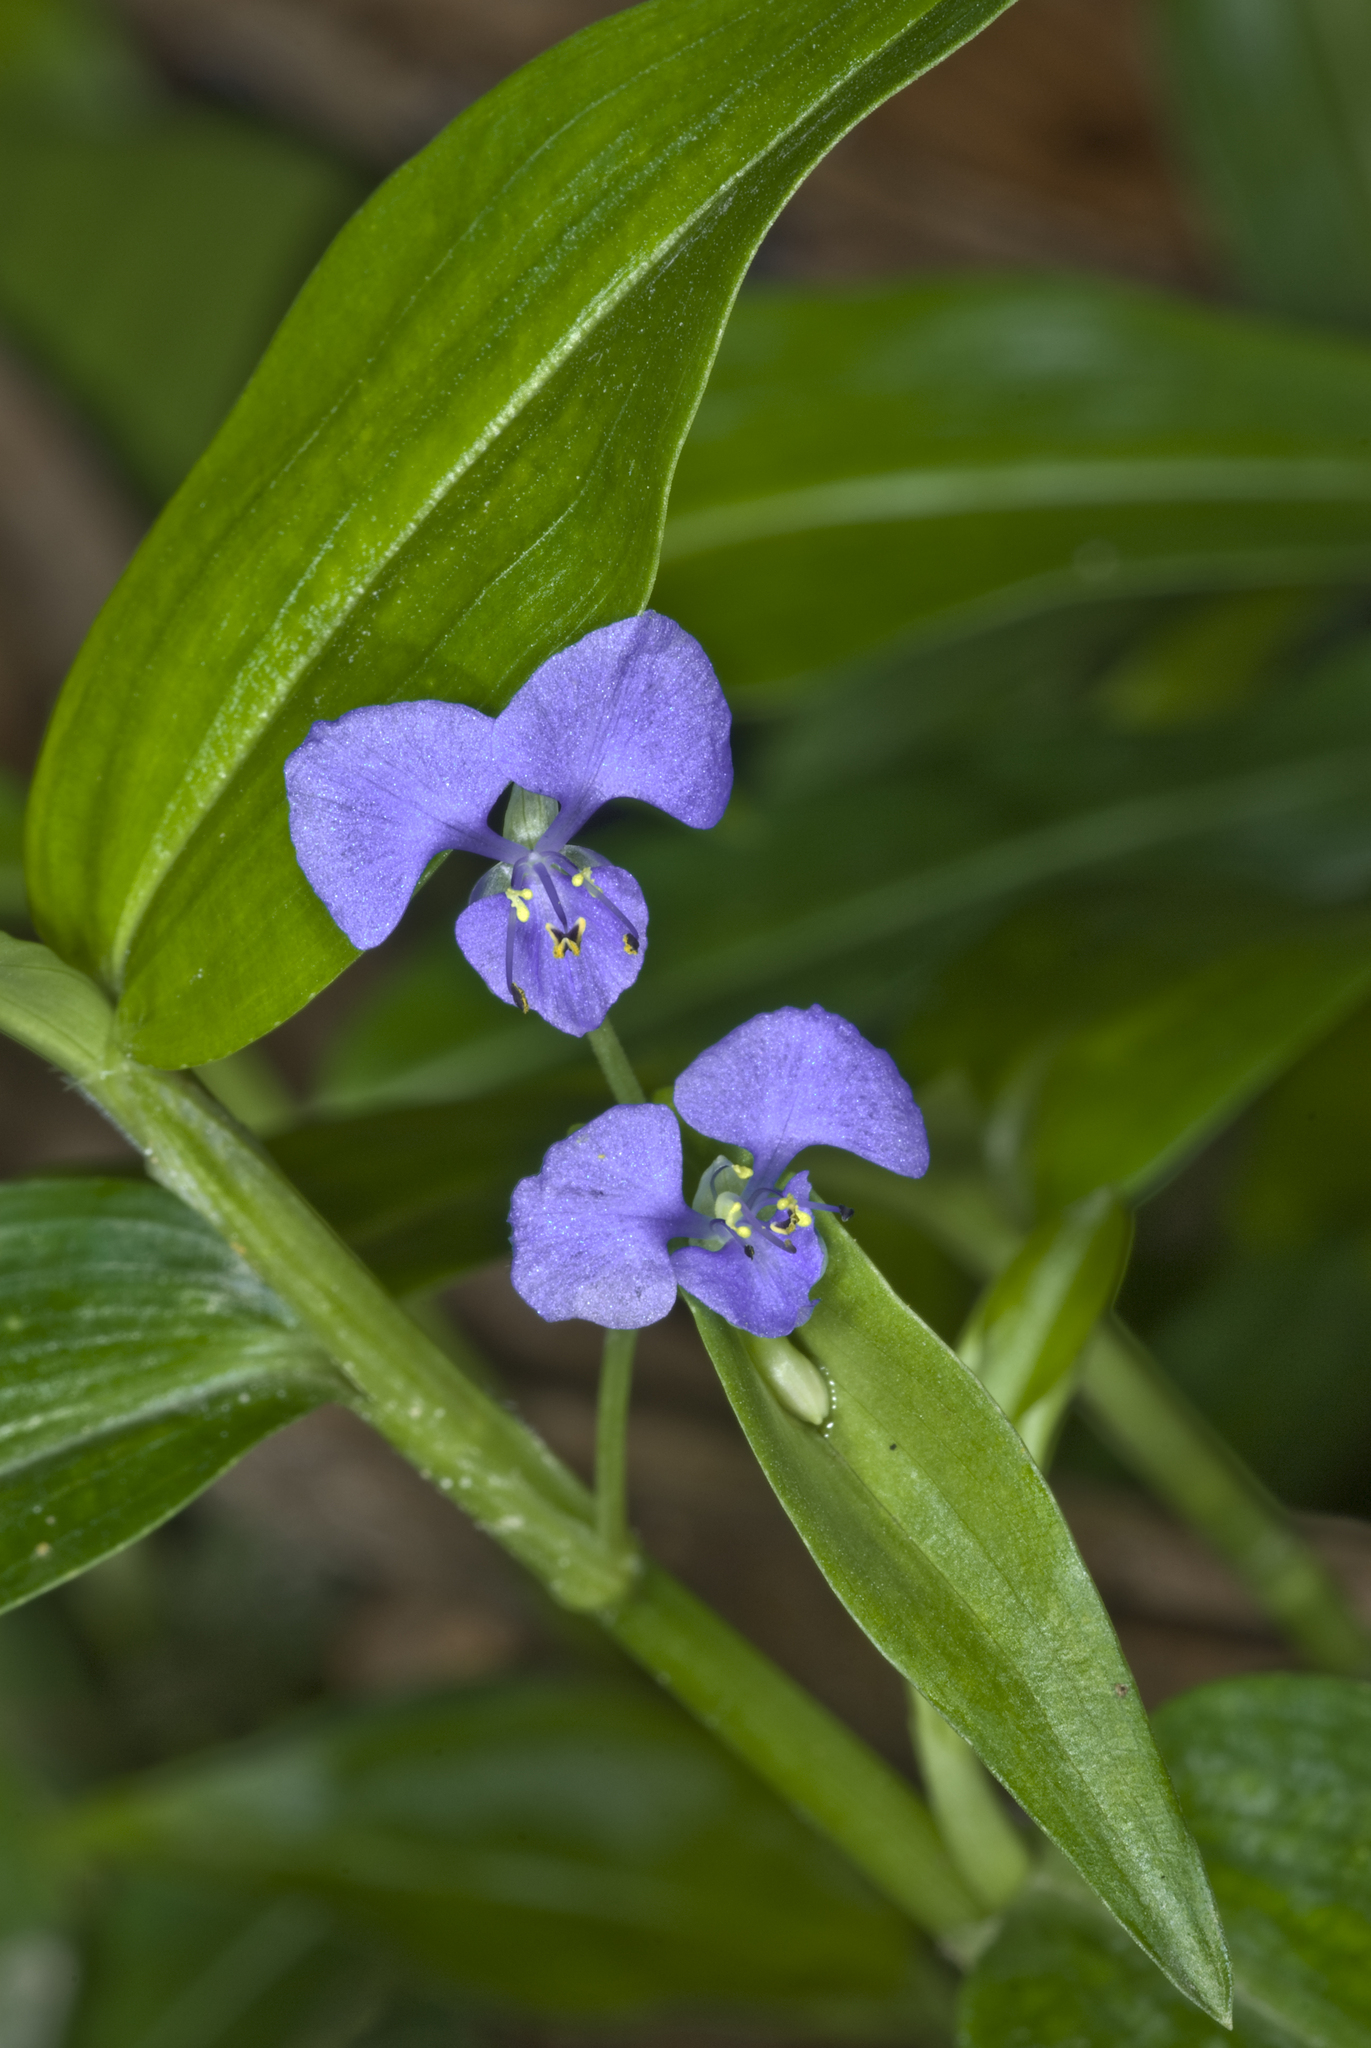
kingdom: Plantae
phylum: Tracheophyta
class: Liliopsida
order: Commelinales
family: Commelinaceae
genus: Commelina
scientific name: Commelina diffusa
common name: Climbing dayflower
